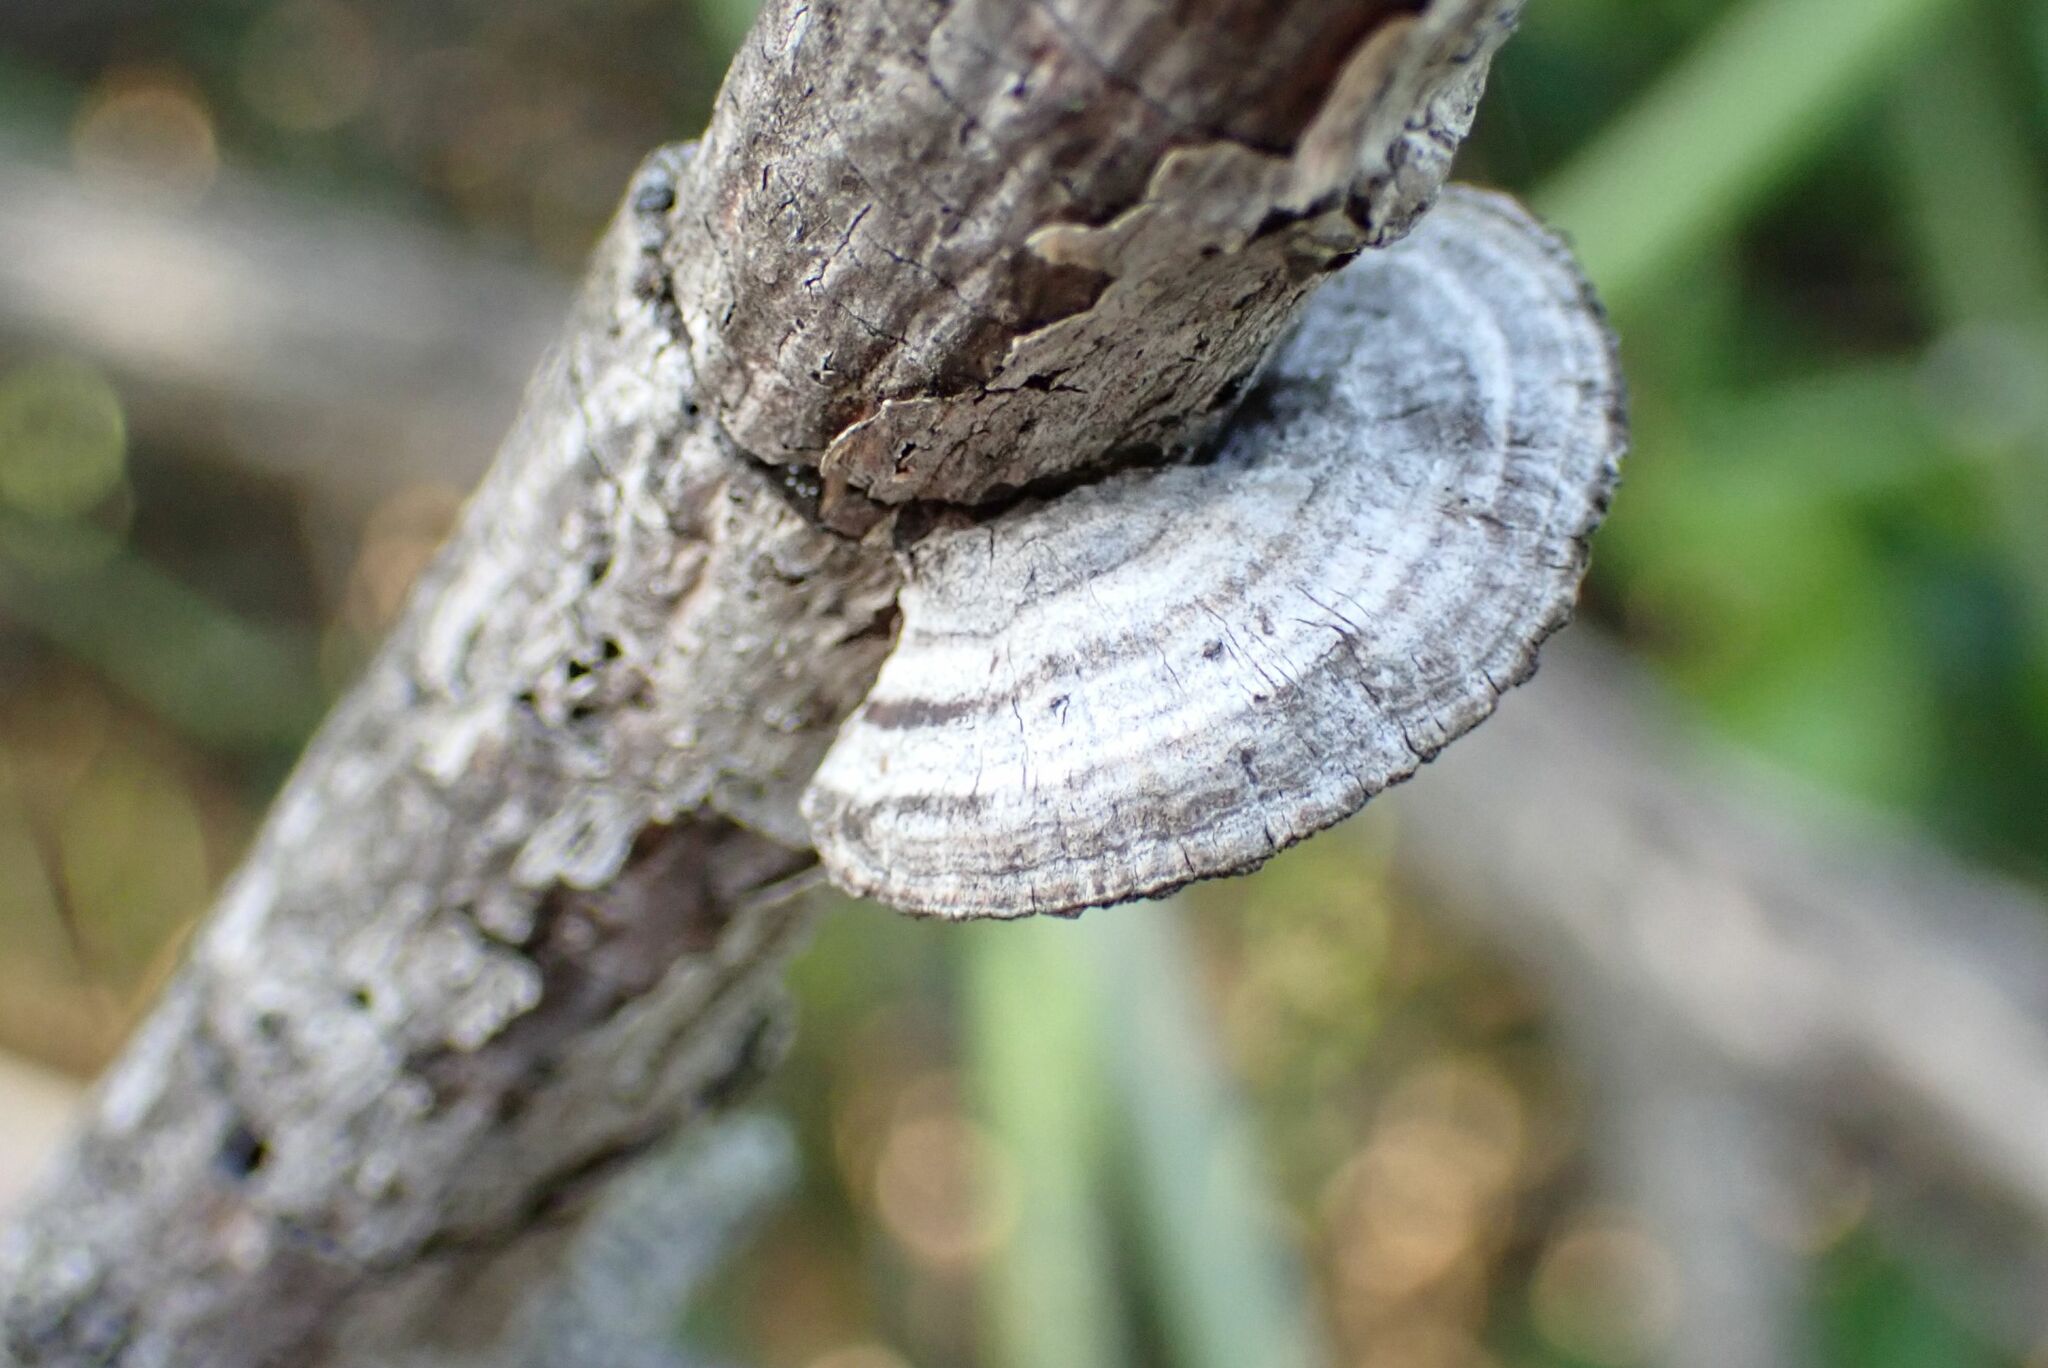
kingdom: Fungi
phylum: Basidiomycota
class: Agaricomycetes
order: Polyporales
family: Polyporaceae
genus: Pseudofavolus
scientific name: Pseudofavolus tenuis
